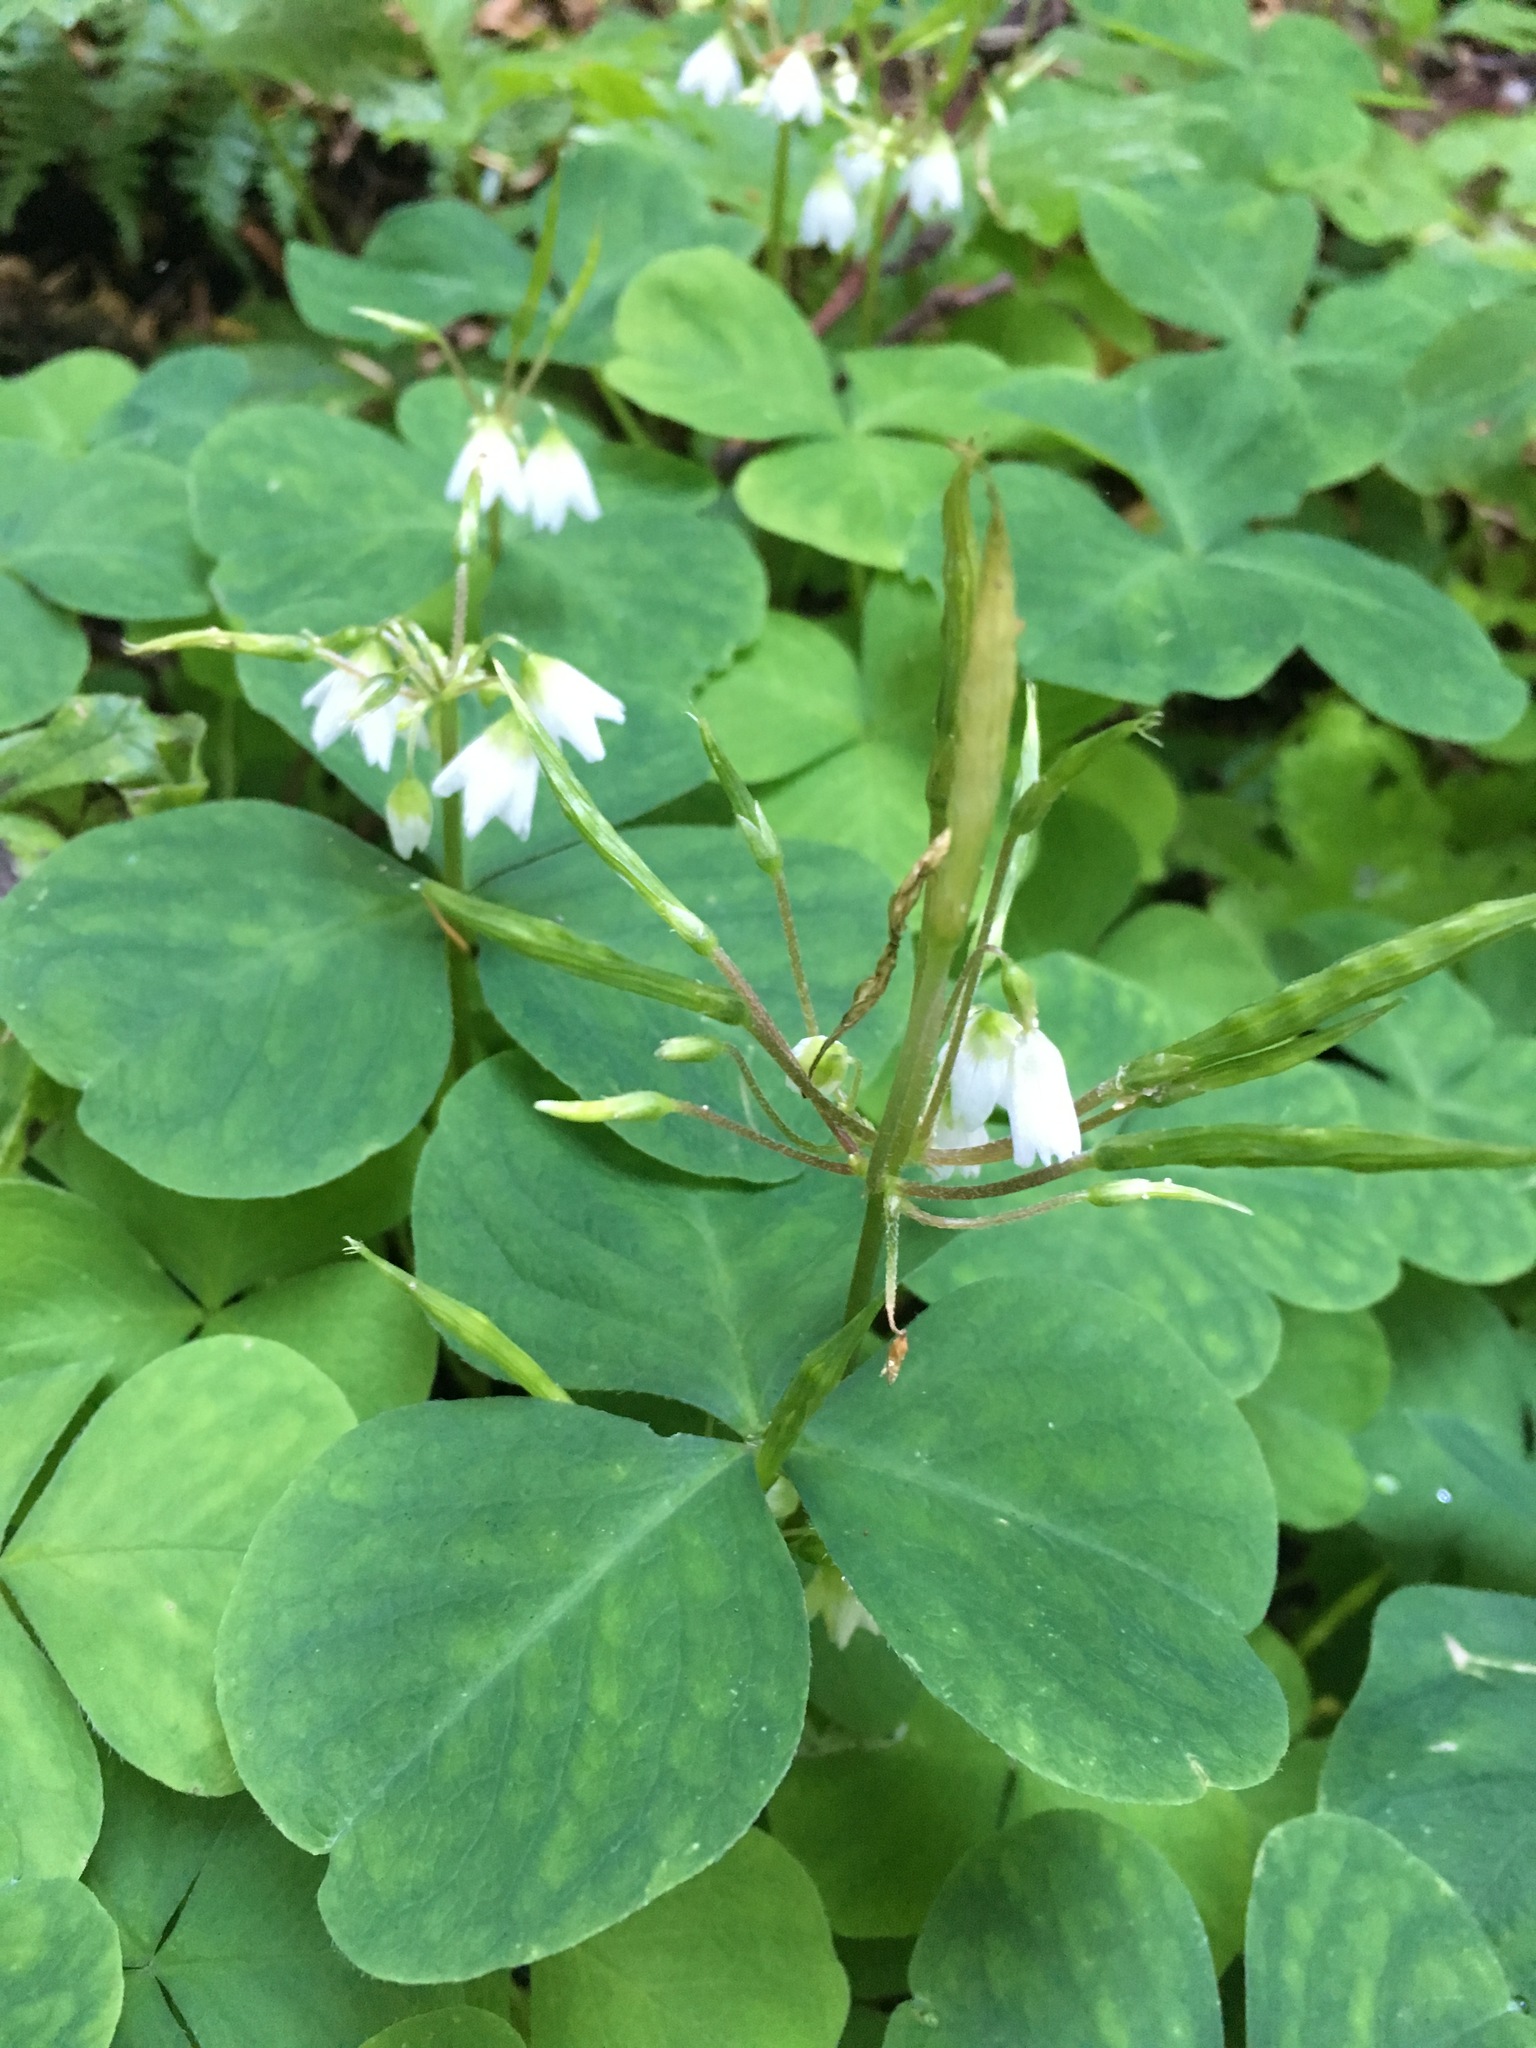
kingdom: Plantae
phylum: Tracheophyta
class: Magnoliopsida
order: Oxalidales
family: Oxalidaceae
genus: Oxalis
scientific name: Oxalis trilliifolia
